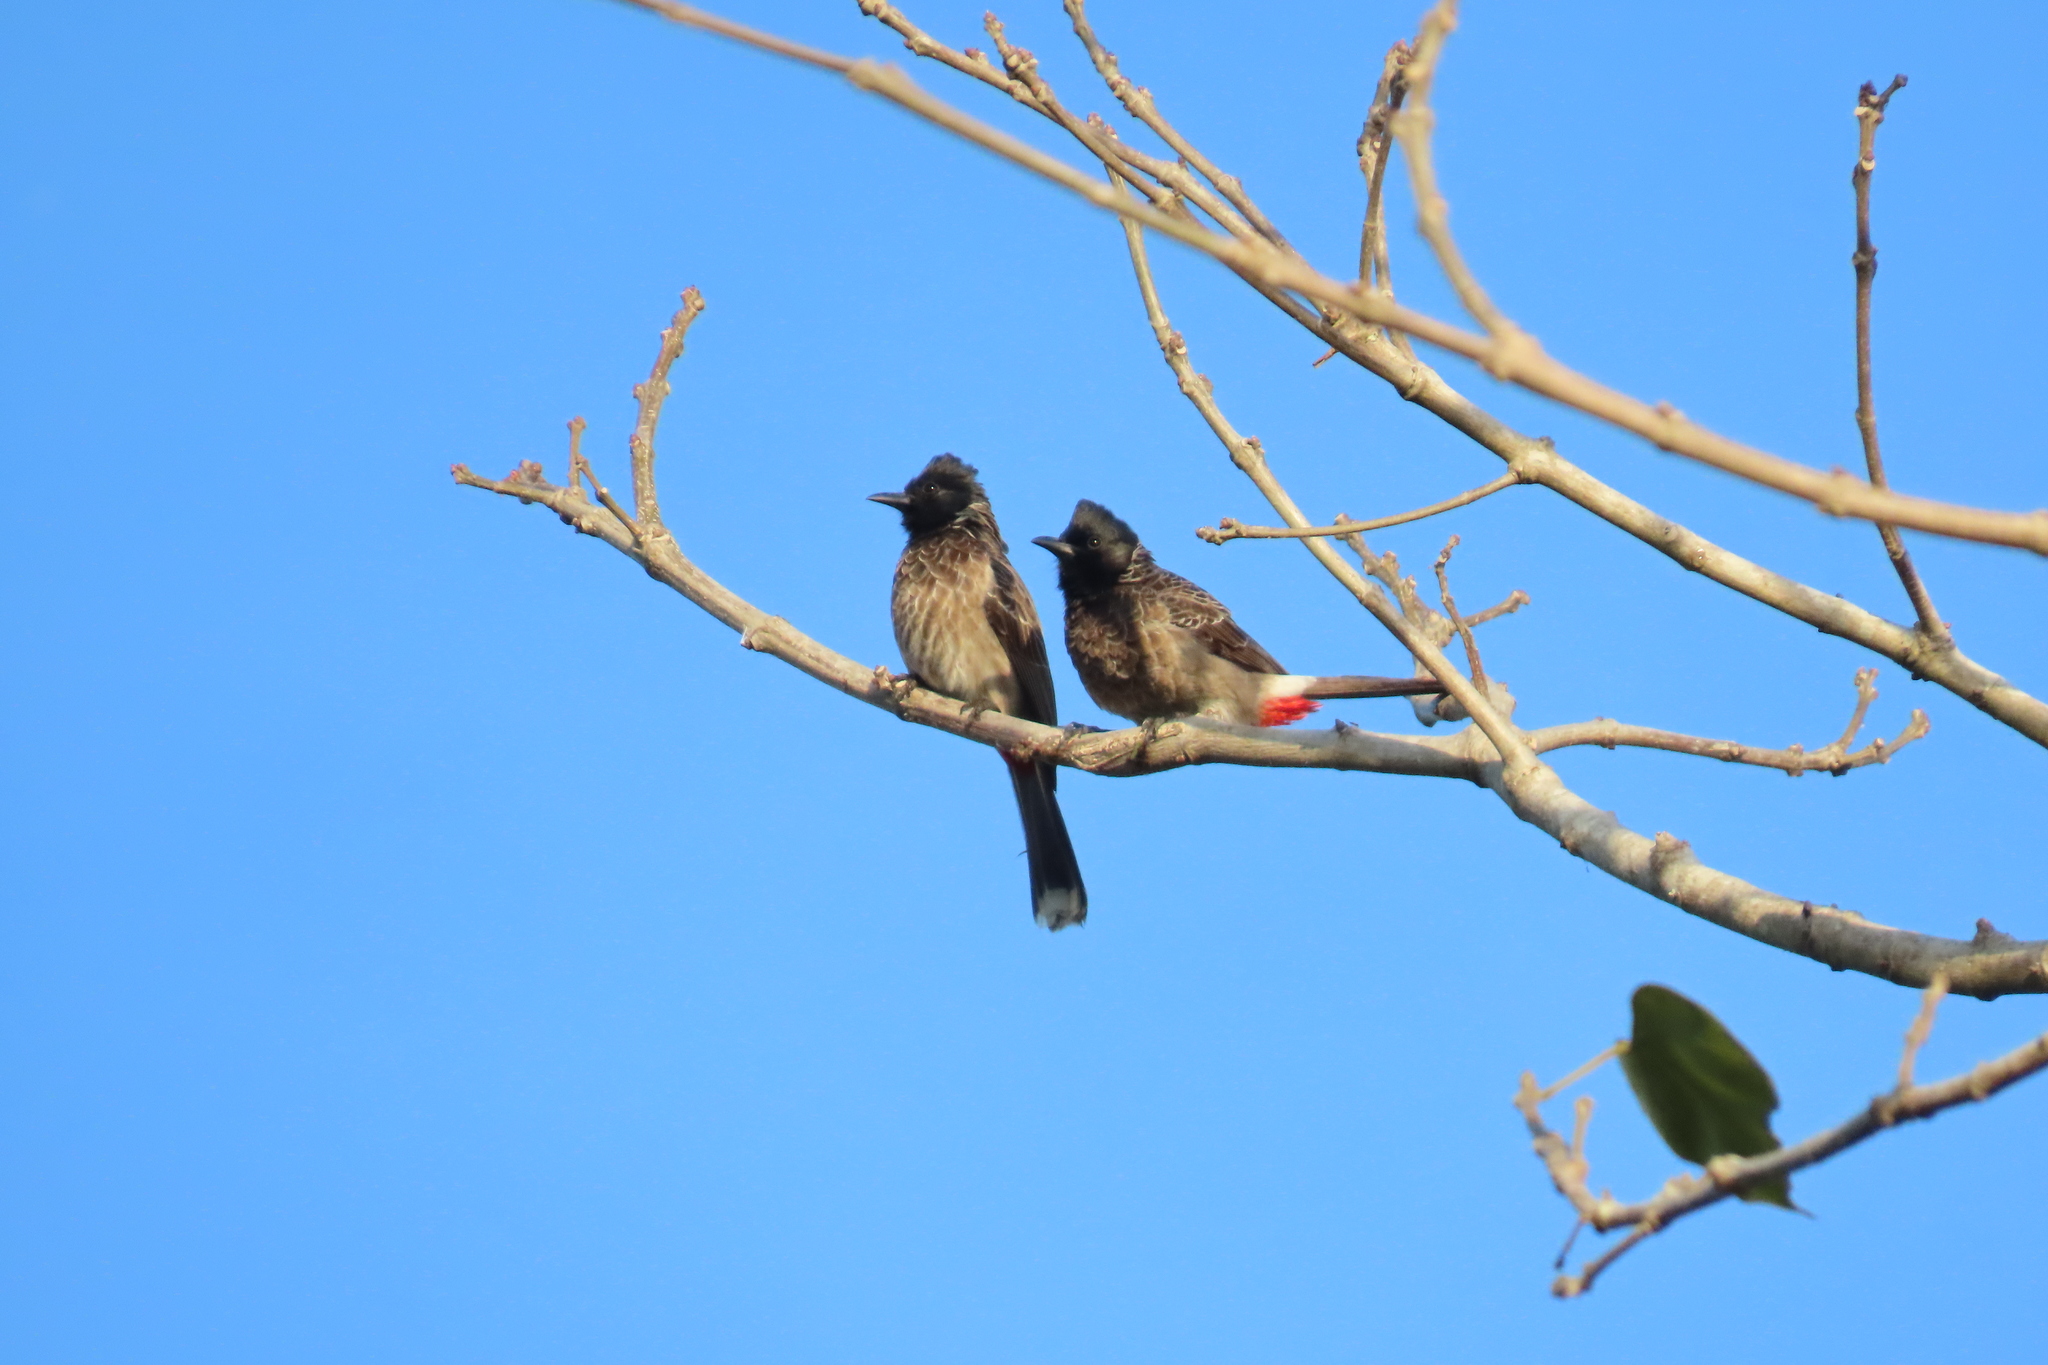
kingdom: Animalia
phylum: Chordata
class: Aves
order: Passeriformes
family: Pycnonotidae
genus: Pycnonotus
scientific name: Pycnonotus cafer
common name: Red-vented bulbul
